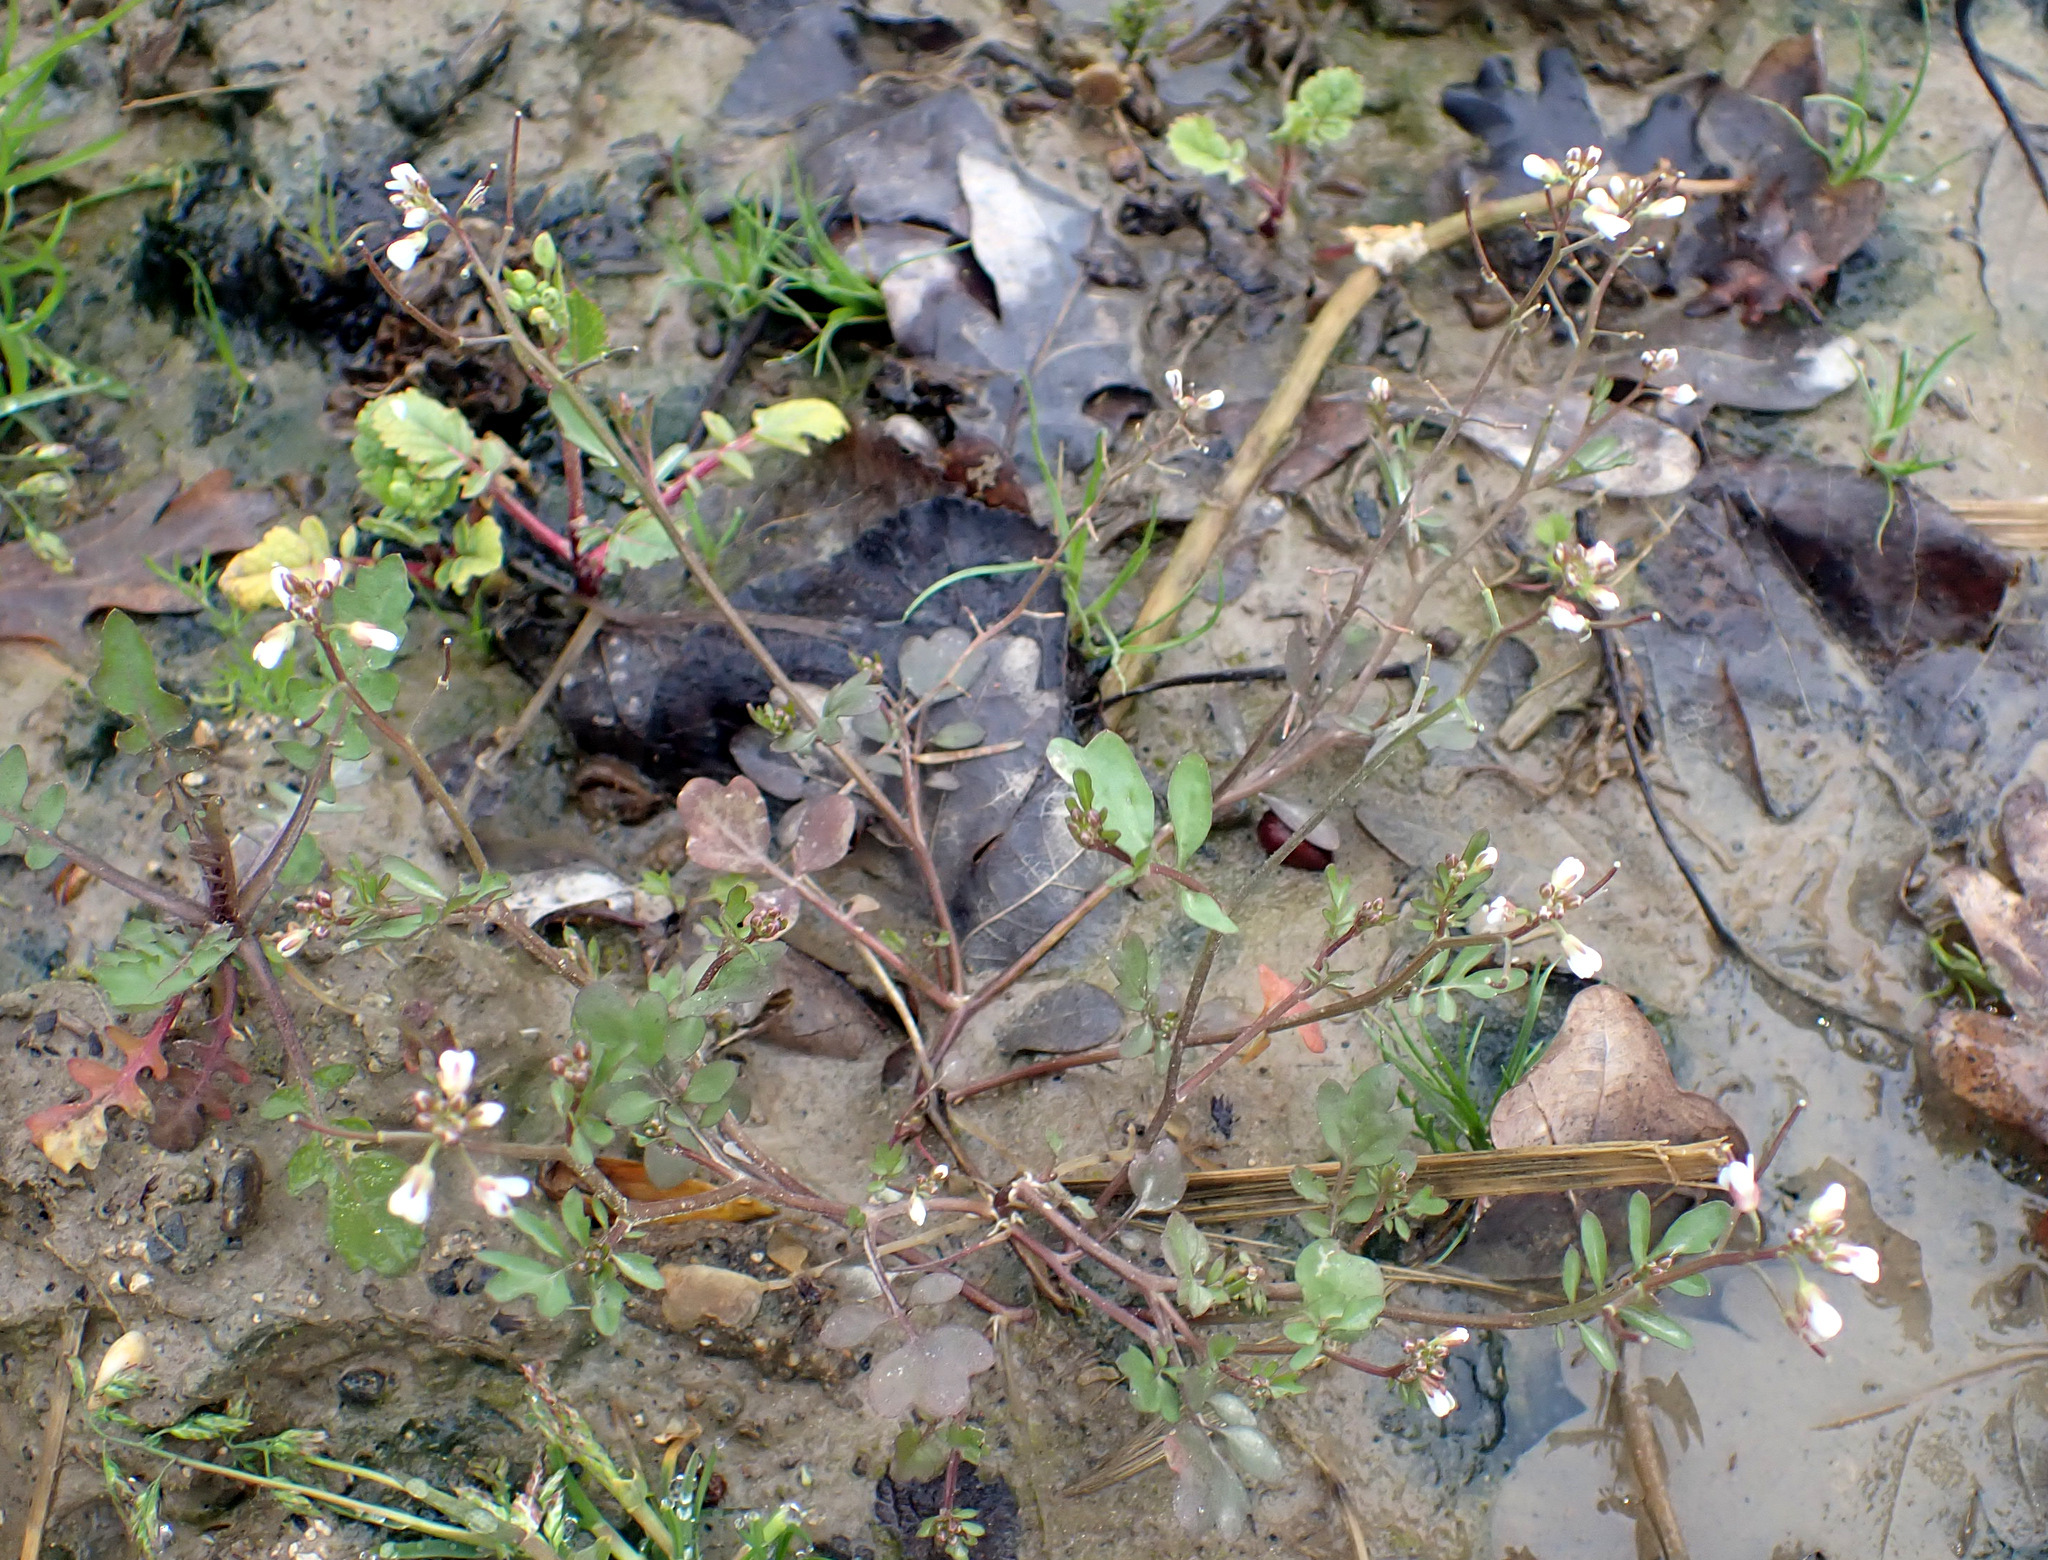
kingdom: Plantae
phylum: Tracheophyta
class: Magnoliopsida
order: Brassicales
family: Brassicaceae
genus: Cardamine
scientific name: Cardamine occulta
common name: Asian wavy bittercress
